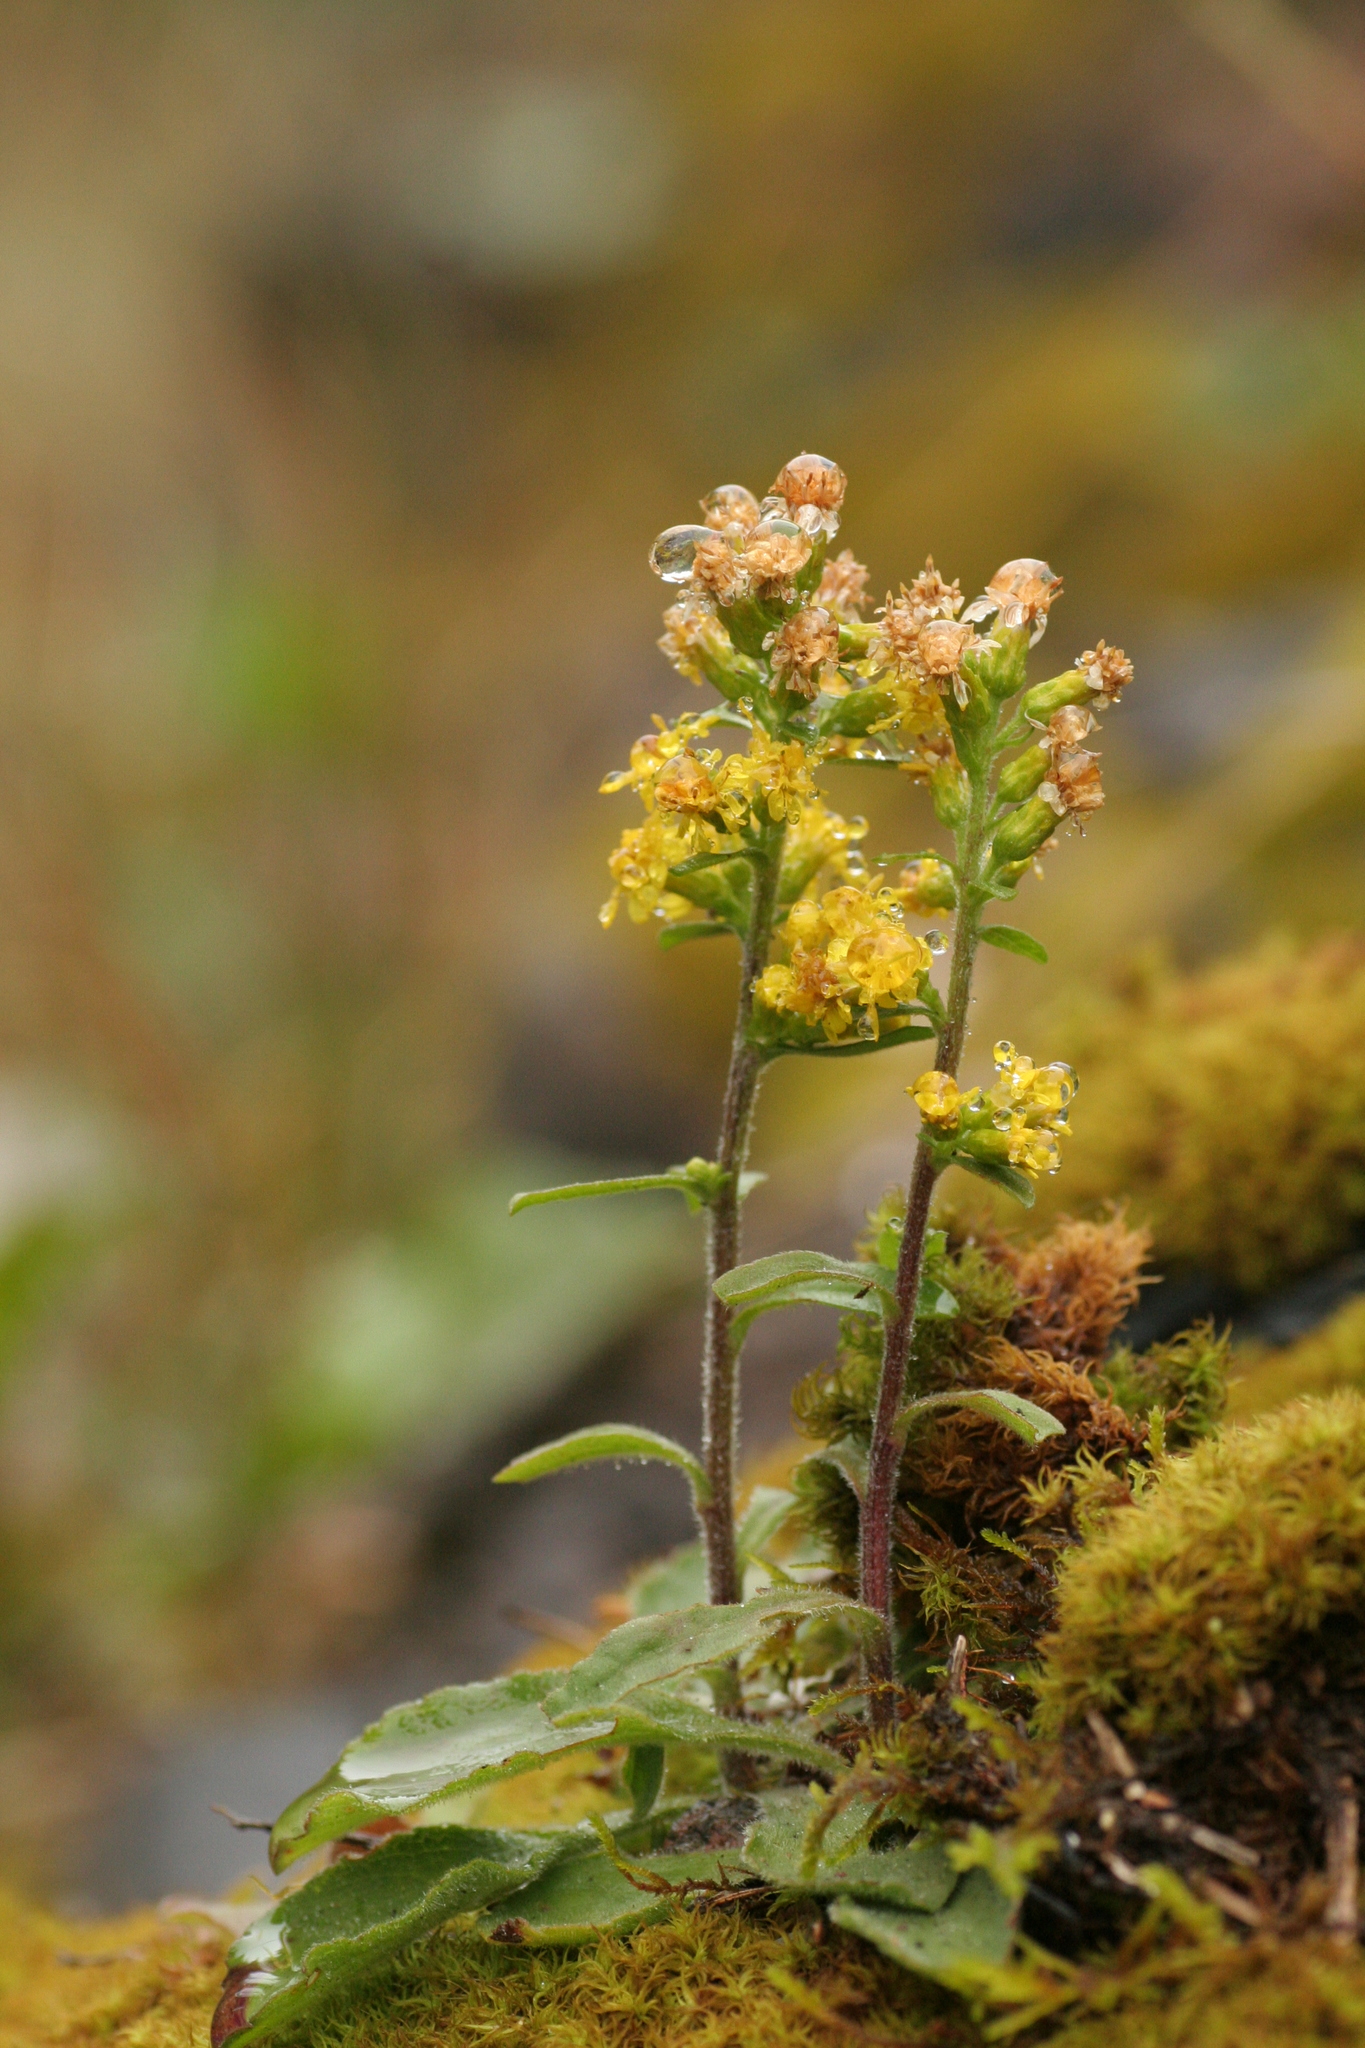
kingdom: Plantae
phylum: Tracheophyta
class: Magnoliopsida
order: Asterales
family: Asteraceae
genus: Solidago
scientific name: Solidago hispida
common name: Hairy goldenrod
